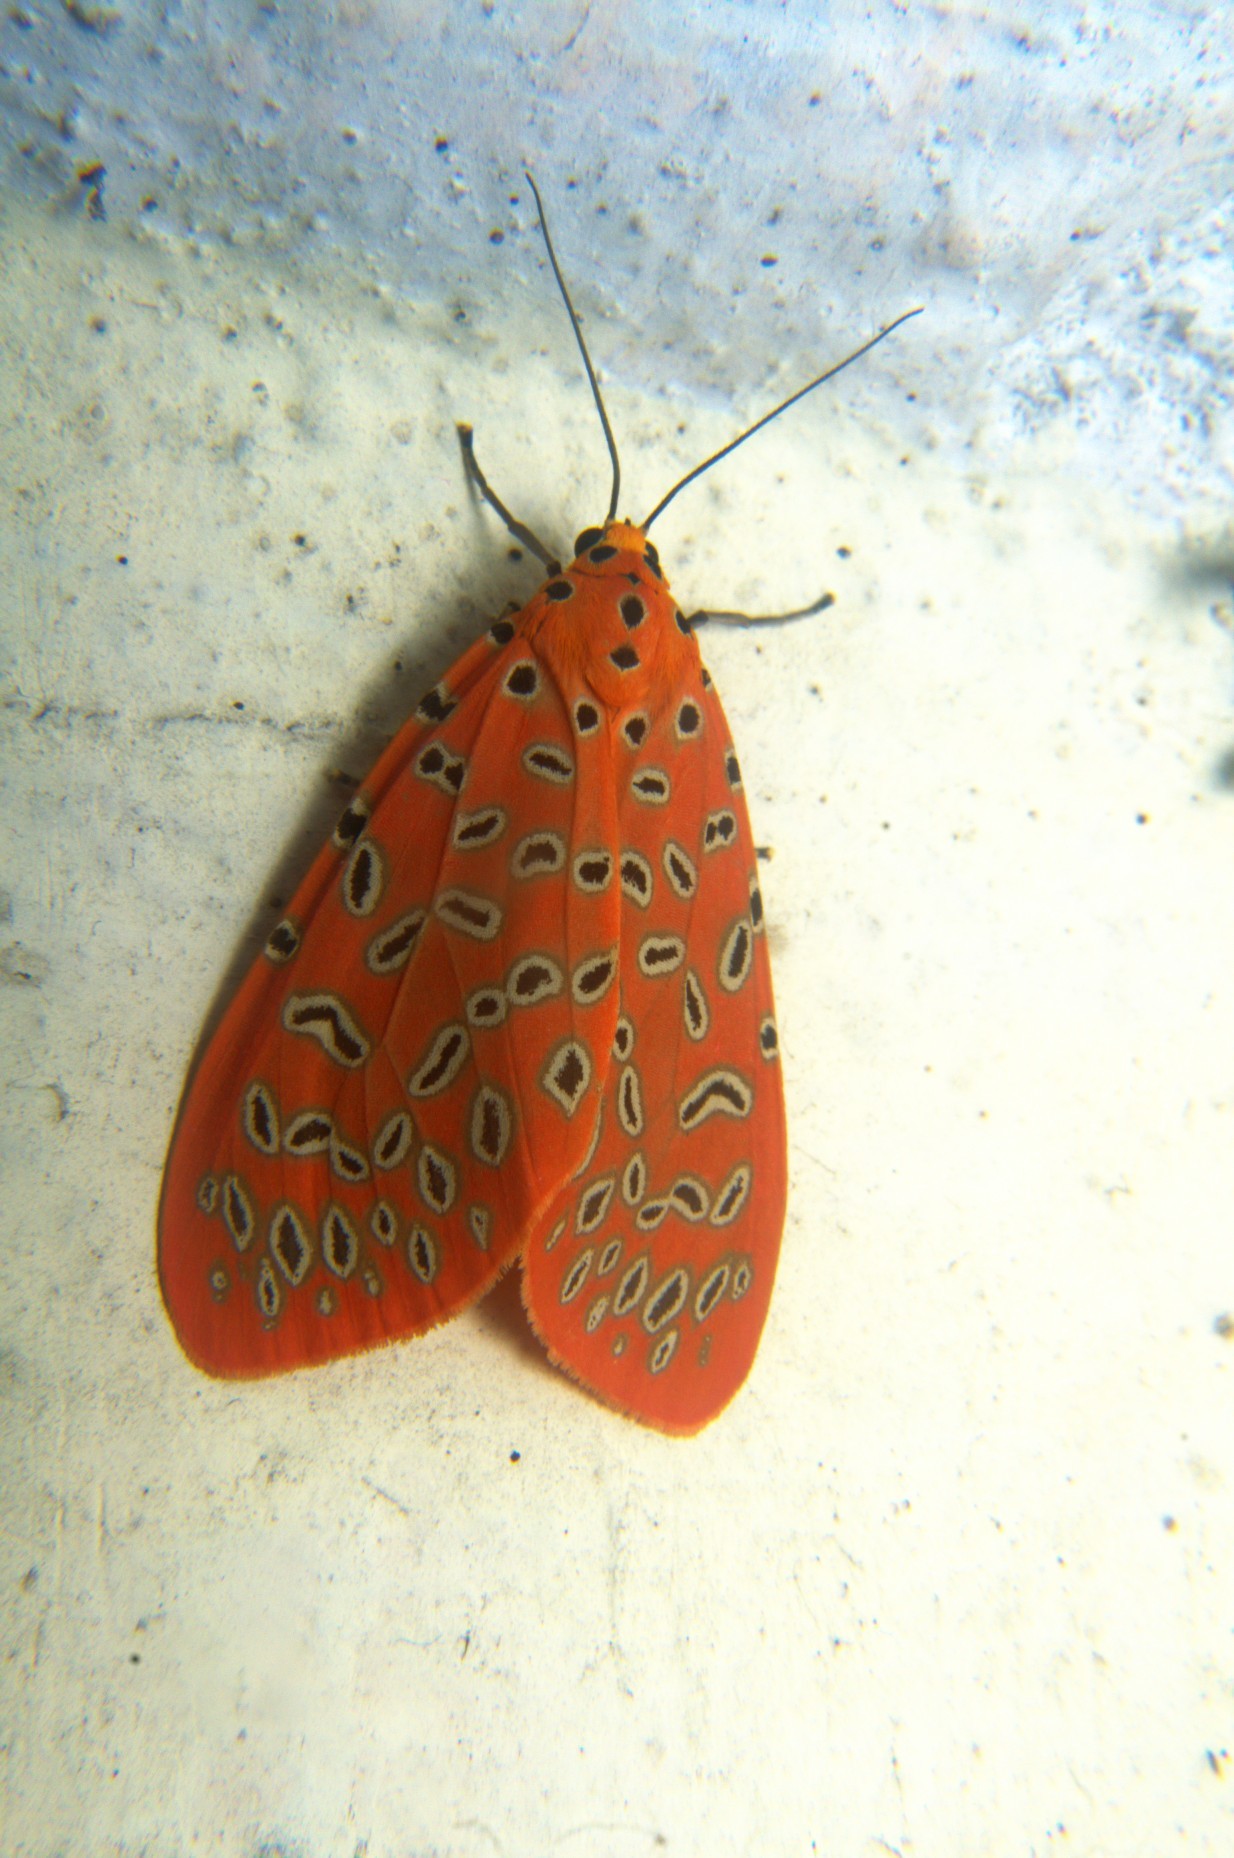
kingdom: Animalia
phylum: Arthropoda
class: Insecta
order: Lepidoptera
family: Erebidae
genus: Mangina
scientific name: Mangina argus
